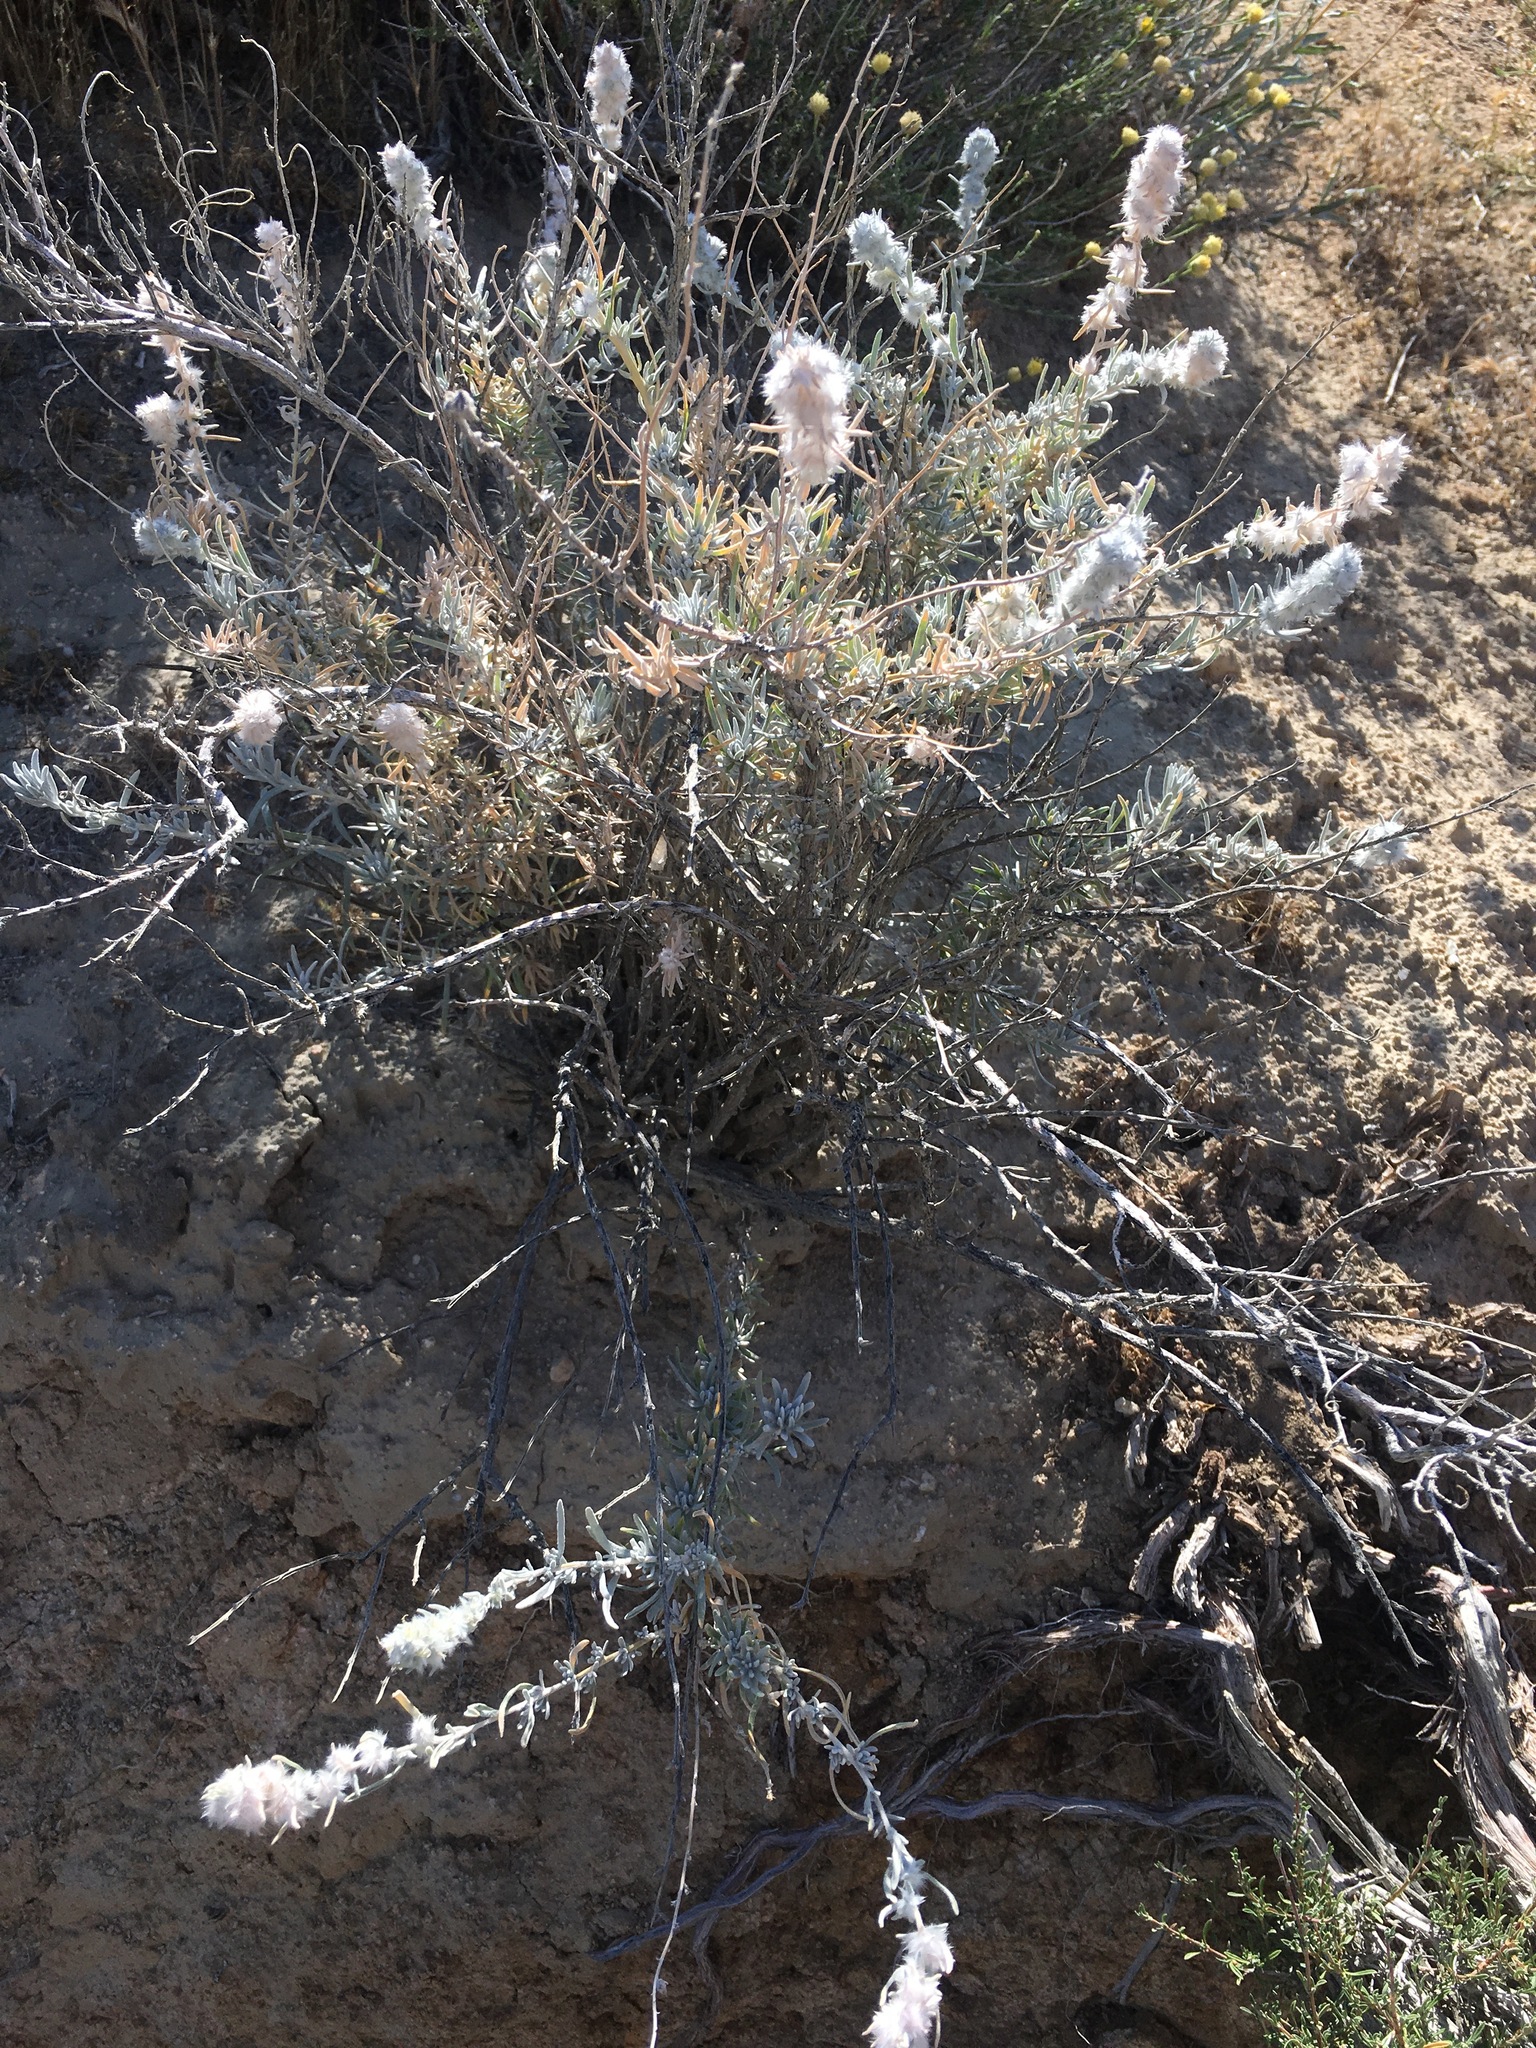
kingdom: Plantae
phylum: Tracheophyta
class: Magnoliopsida
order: Caryophyllales
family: Amaranthaceae
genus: Krascheninnikovia
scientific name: Krascheninnikovia lanata
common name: Winterfat
